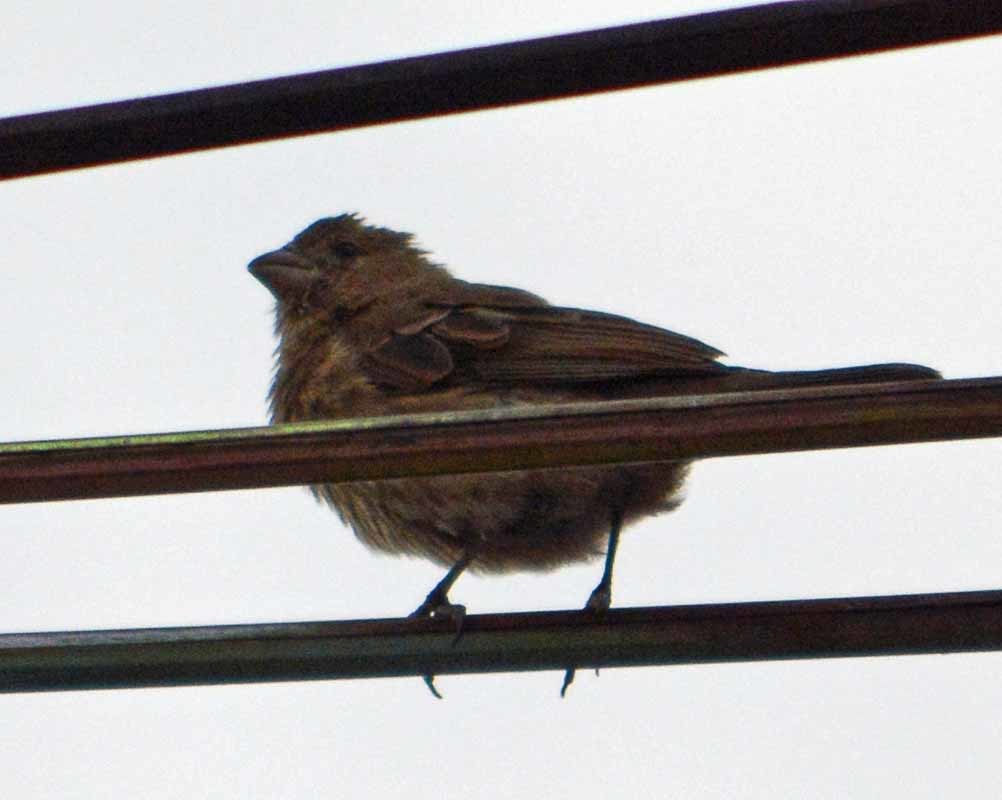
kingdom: Animalia
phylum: Chordata
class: Aves
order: Passeriformes
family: Fringillidae
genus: Haemorhous
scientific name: Haemorhous mexicanus
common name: House finch
